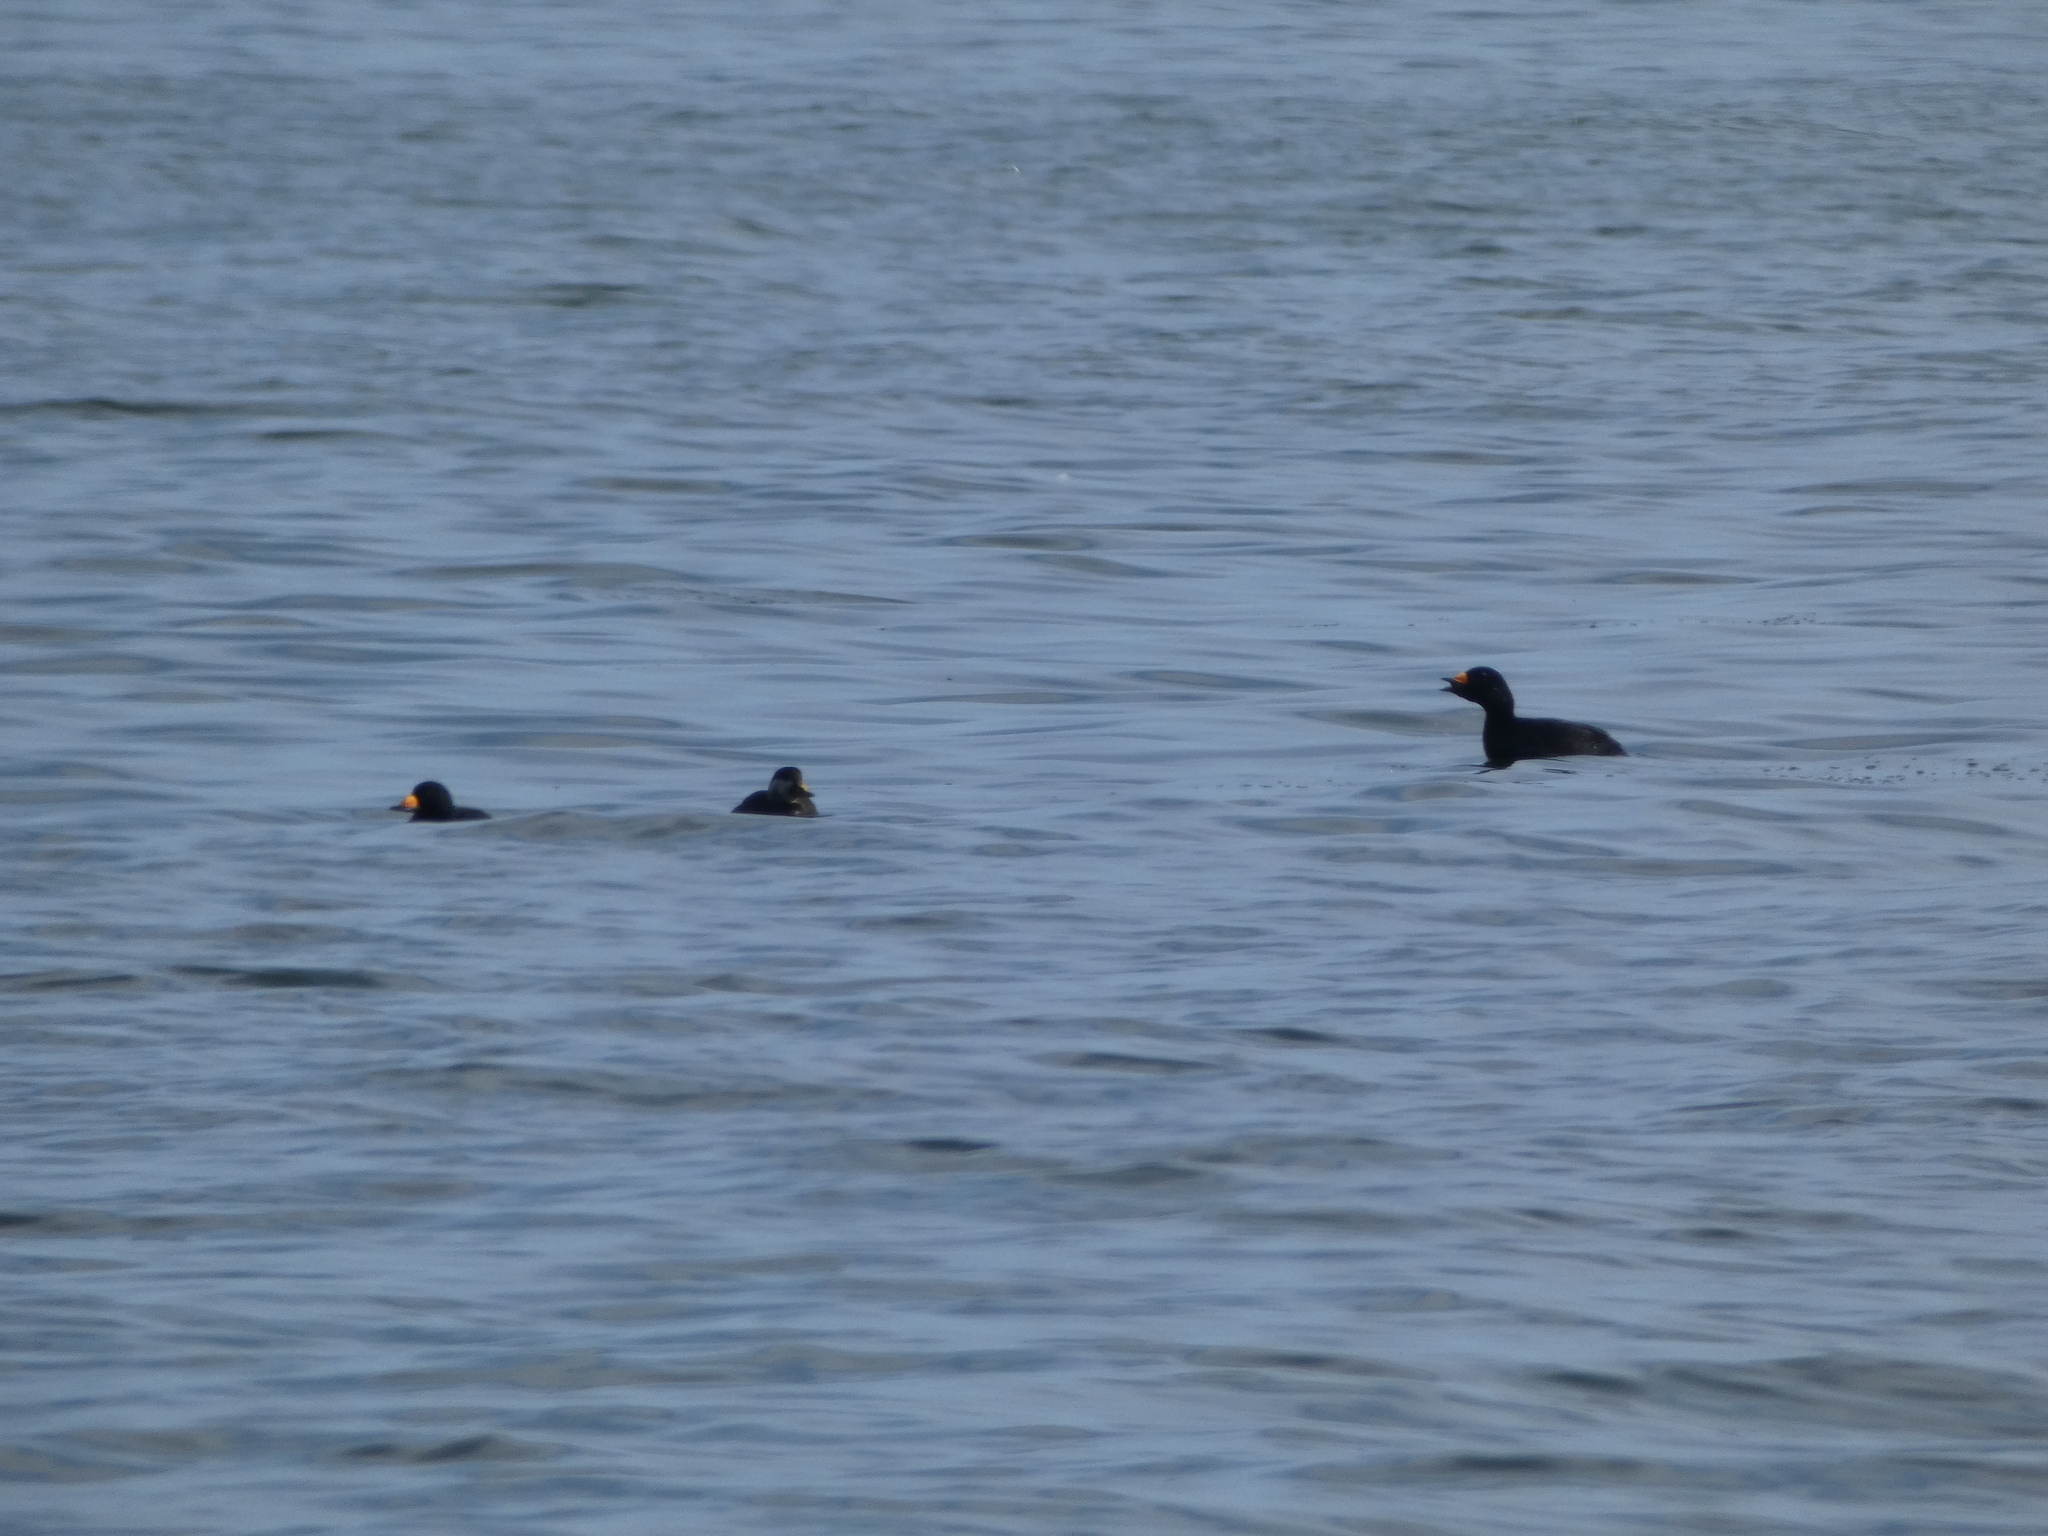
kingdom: Animalia
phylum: Chordata
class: Aves
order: Anseriformes
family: Anatidae
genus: Melanitta
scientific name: Melanitta americana
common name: Black scoter
